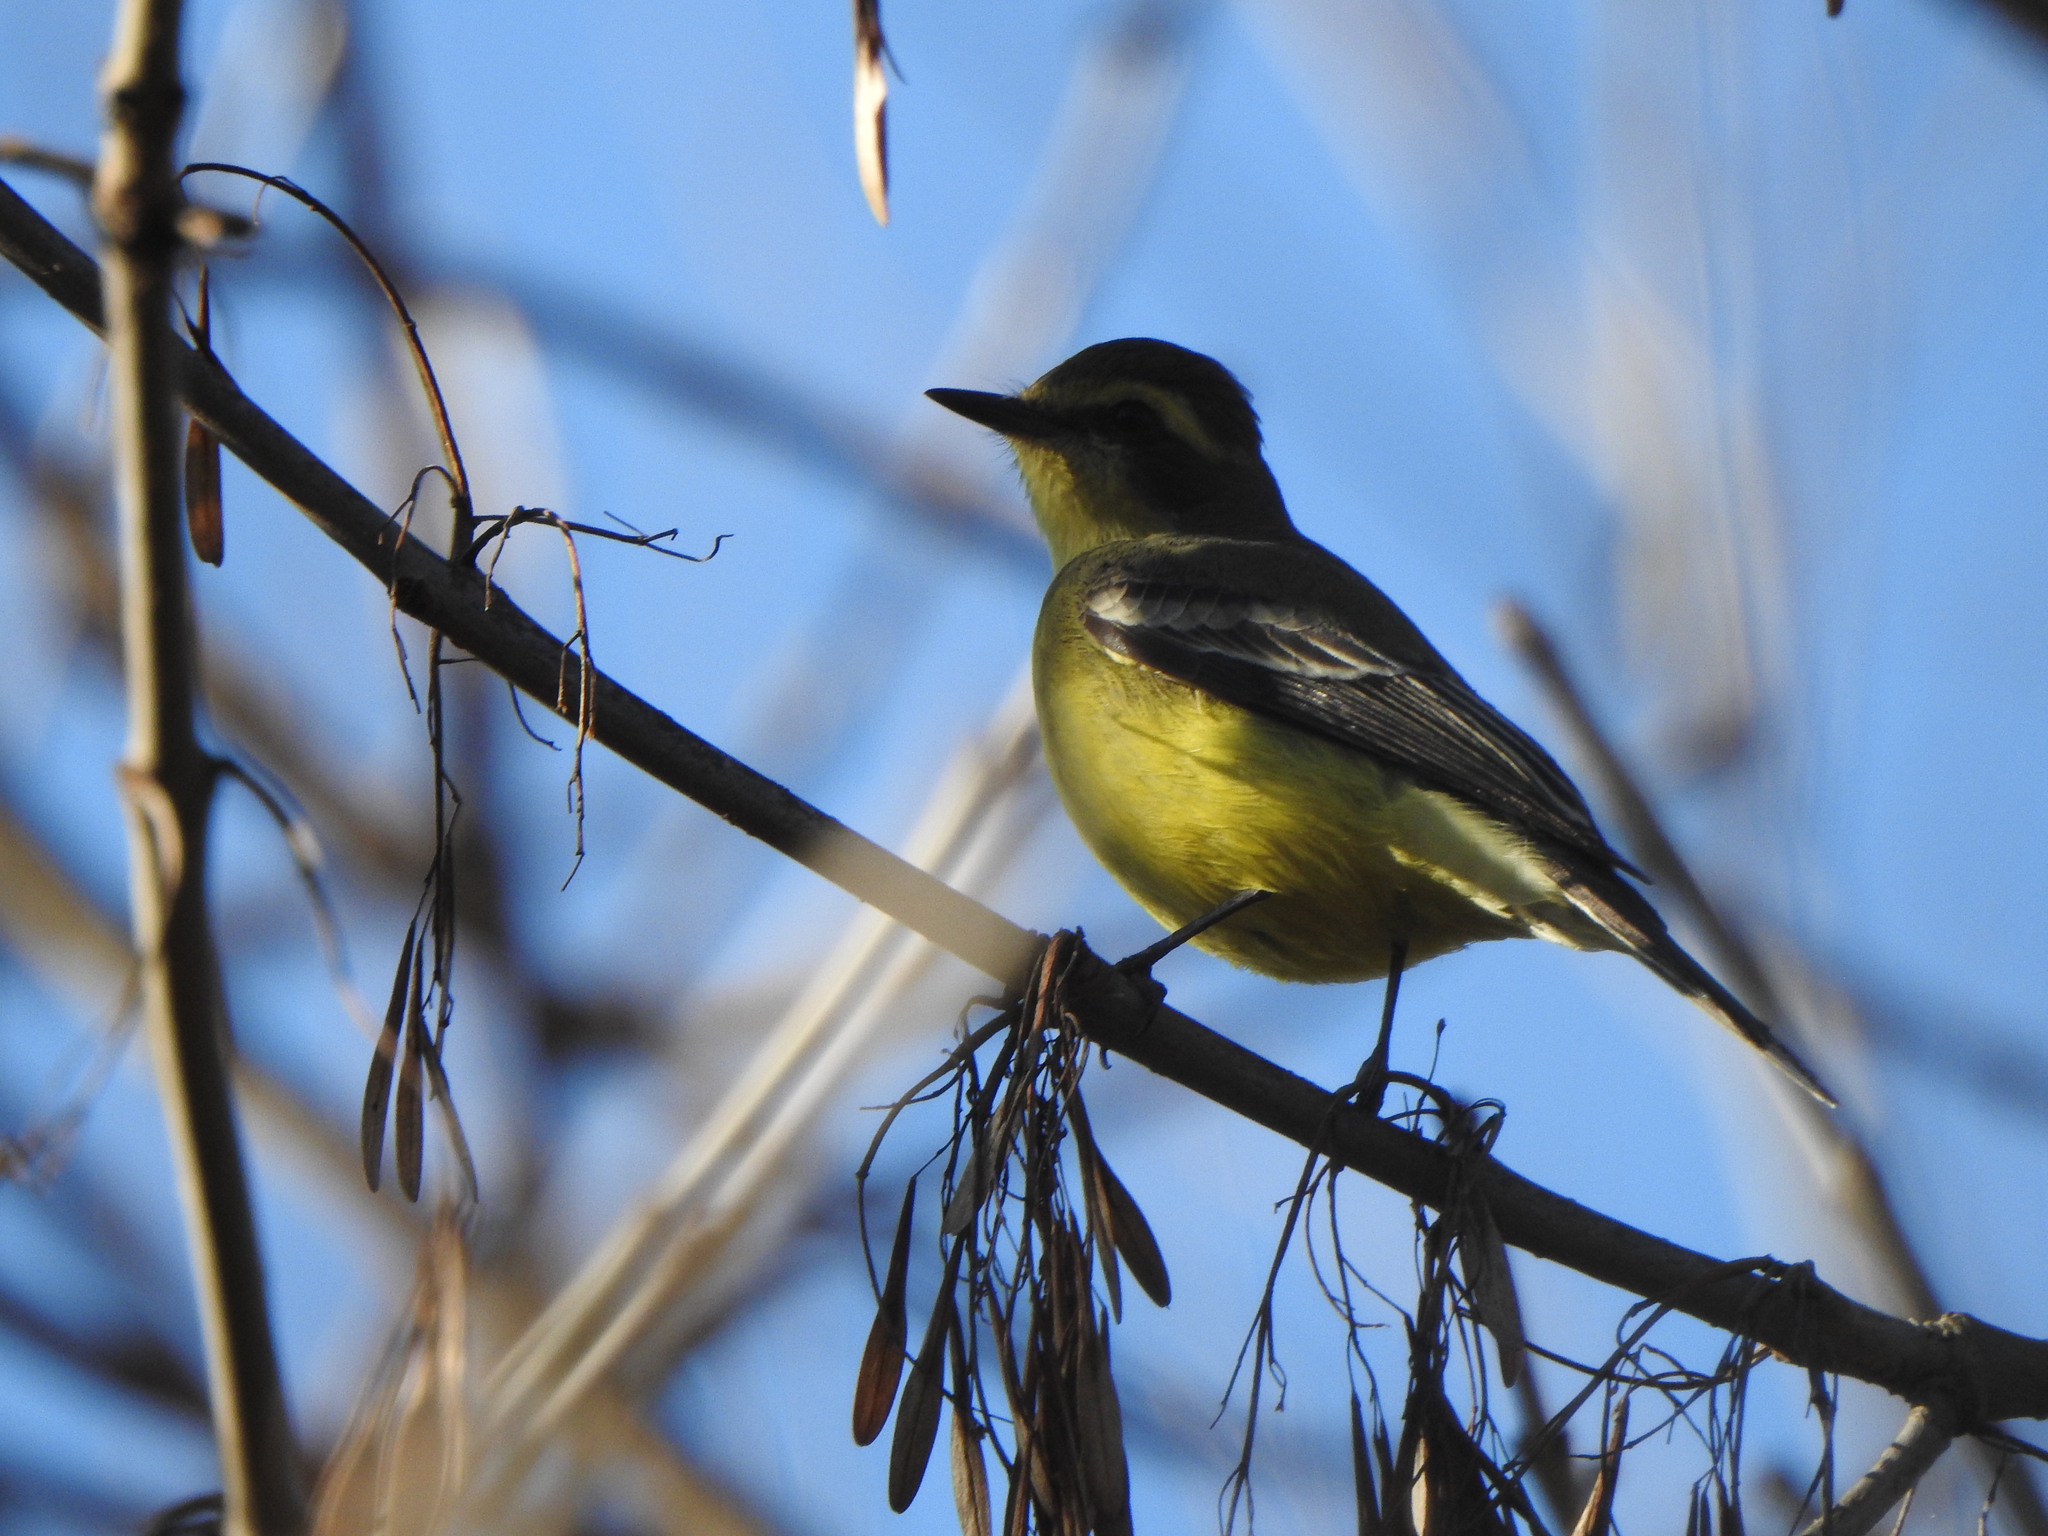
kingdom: Animalia
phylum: Chordata
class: Aves
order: Passeriformes
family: Tyrannidae
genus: Satrapa
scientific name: Satrapa icterophrys
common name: Yellow-browed tyrant
